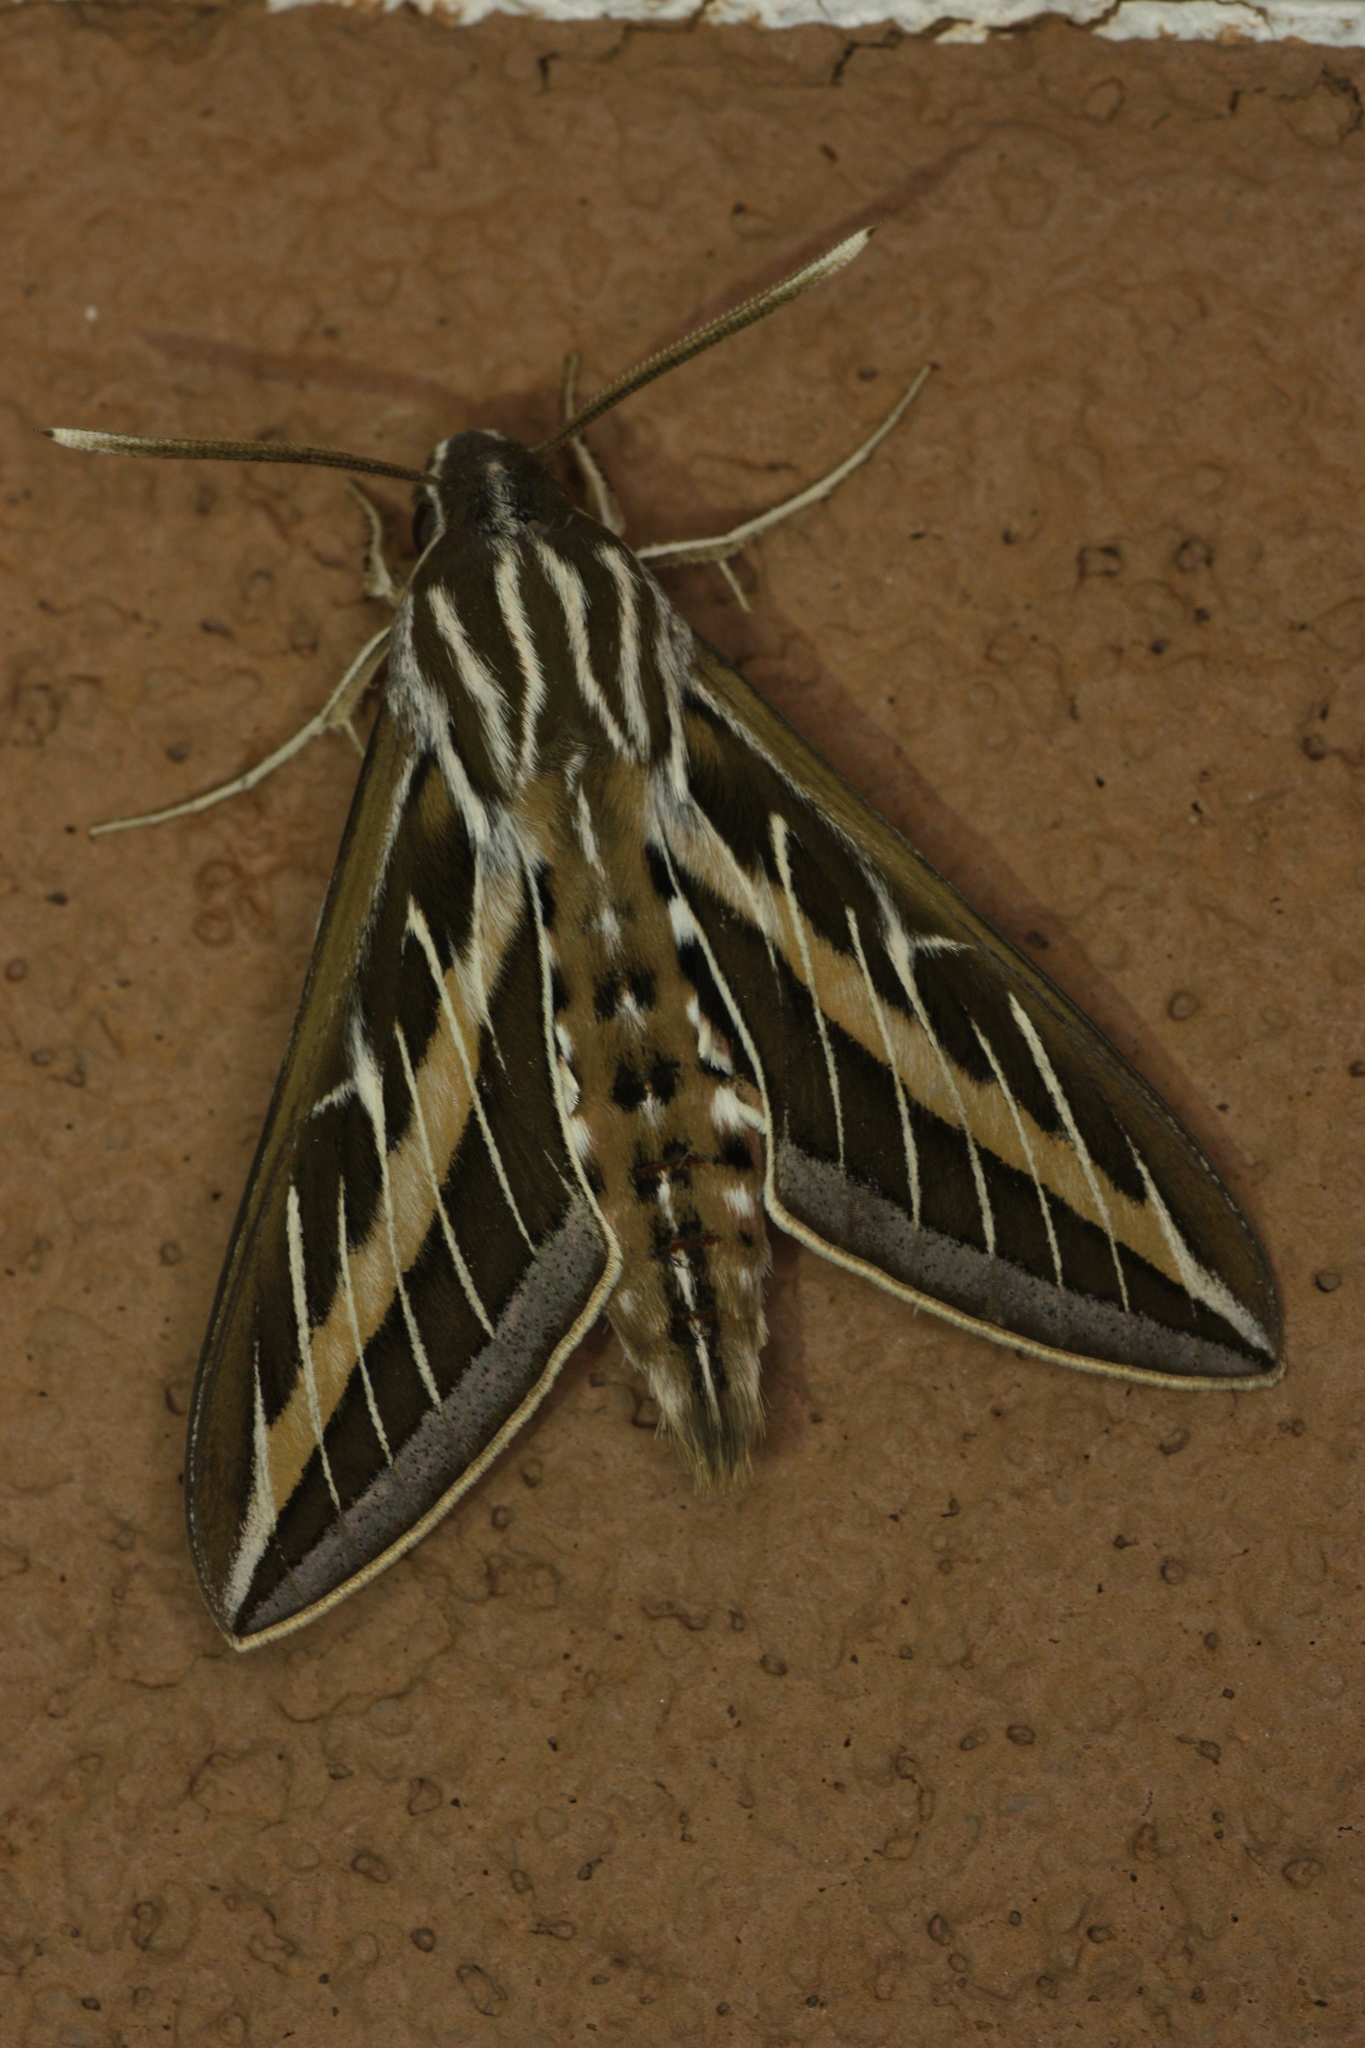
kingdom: Animalia
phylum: Arthropoda
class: Insecta
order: Lepidoptera
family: Sphingidae
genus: Hyles
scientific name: Hyles lineata
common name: White-lined sphinx
